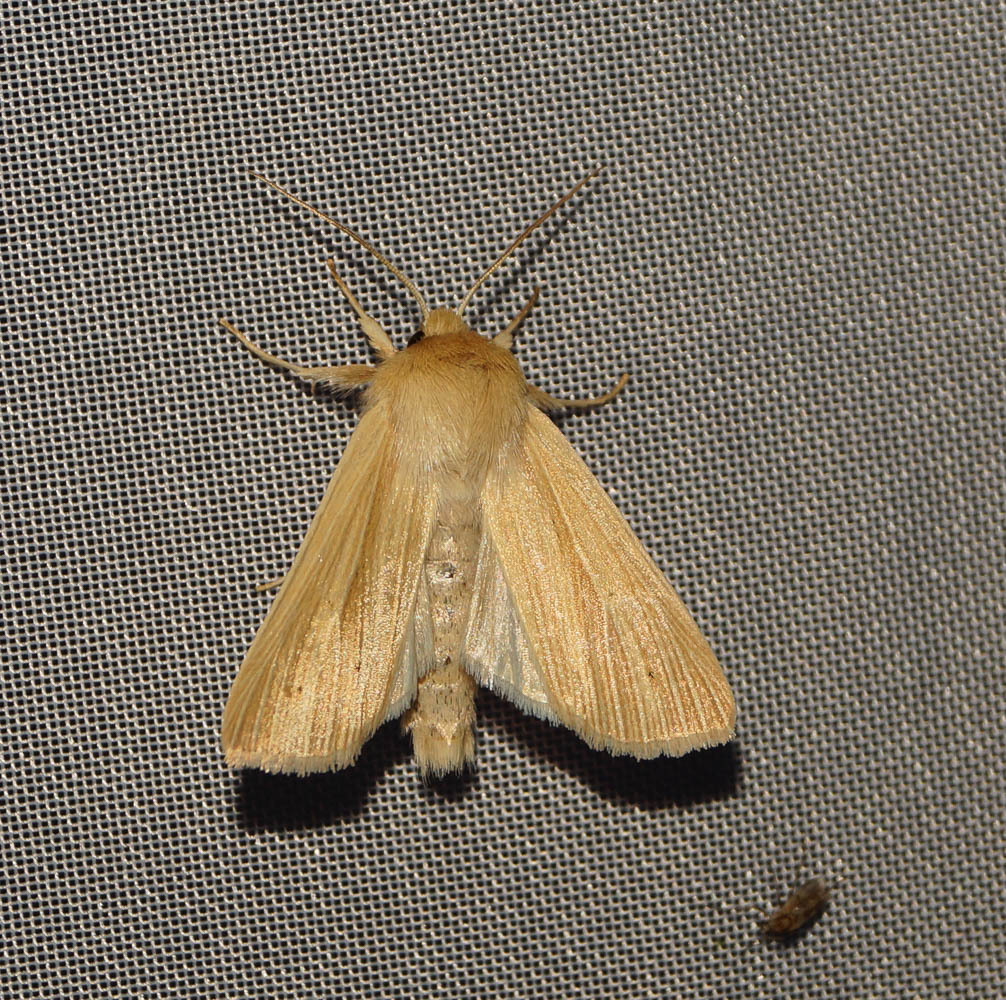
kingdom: Animalia
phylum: Arthropoda
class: Insecta
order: Lepidoptera
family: Noctuidae
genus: Mythimna
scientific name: Mythimna pallens
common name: Common wainscot
